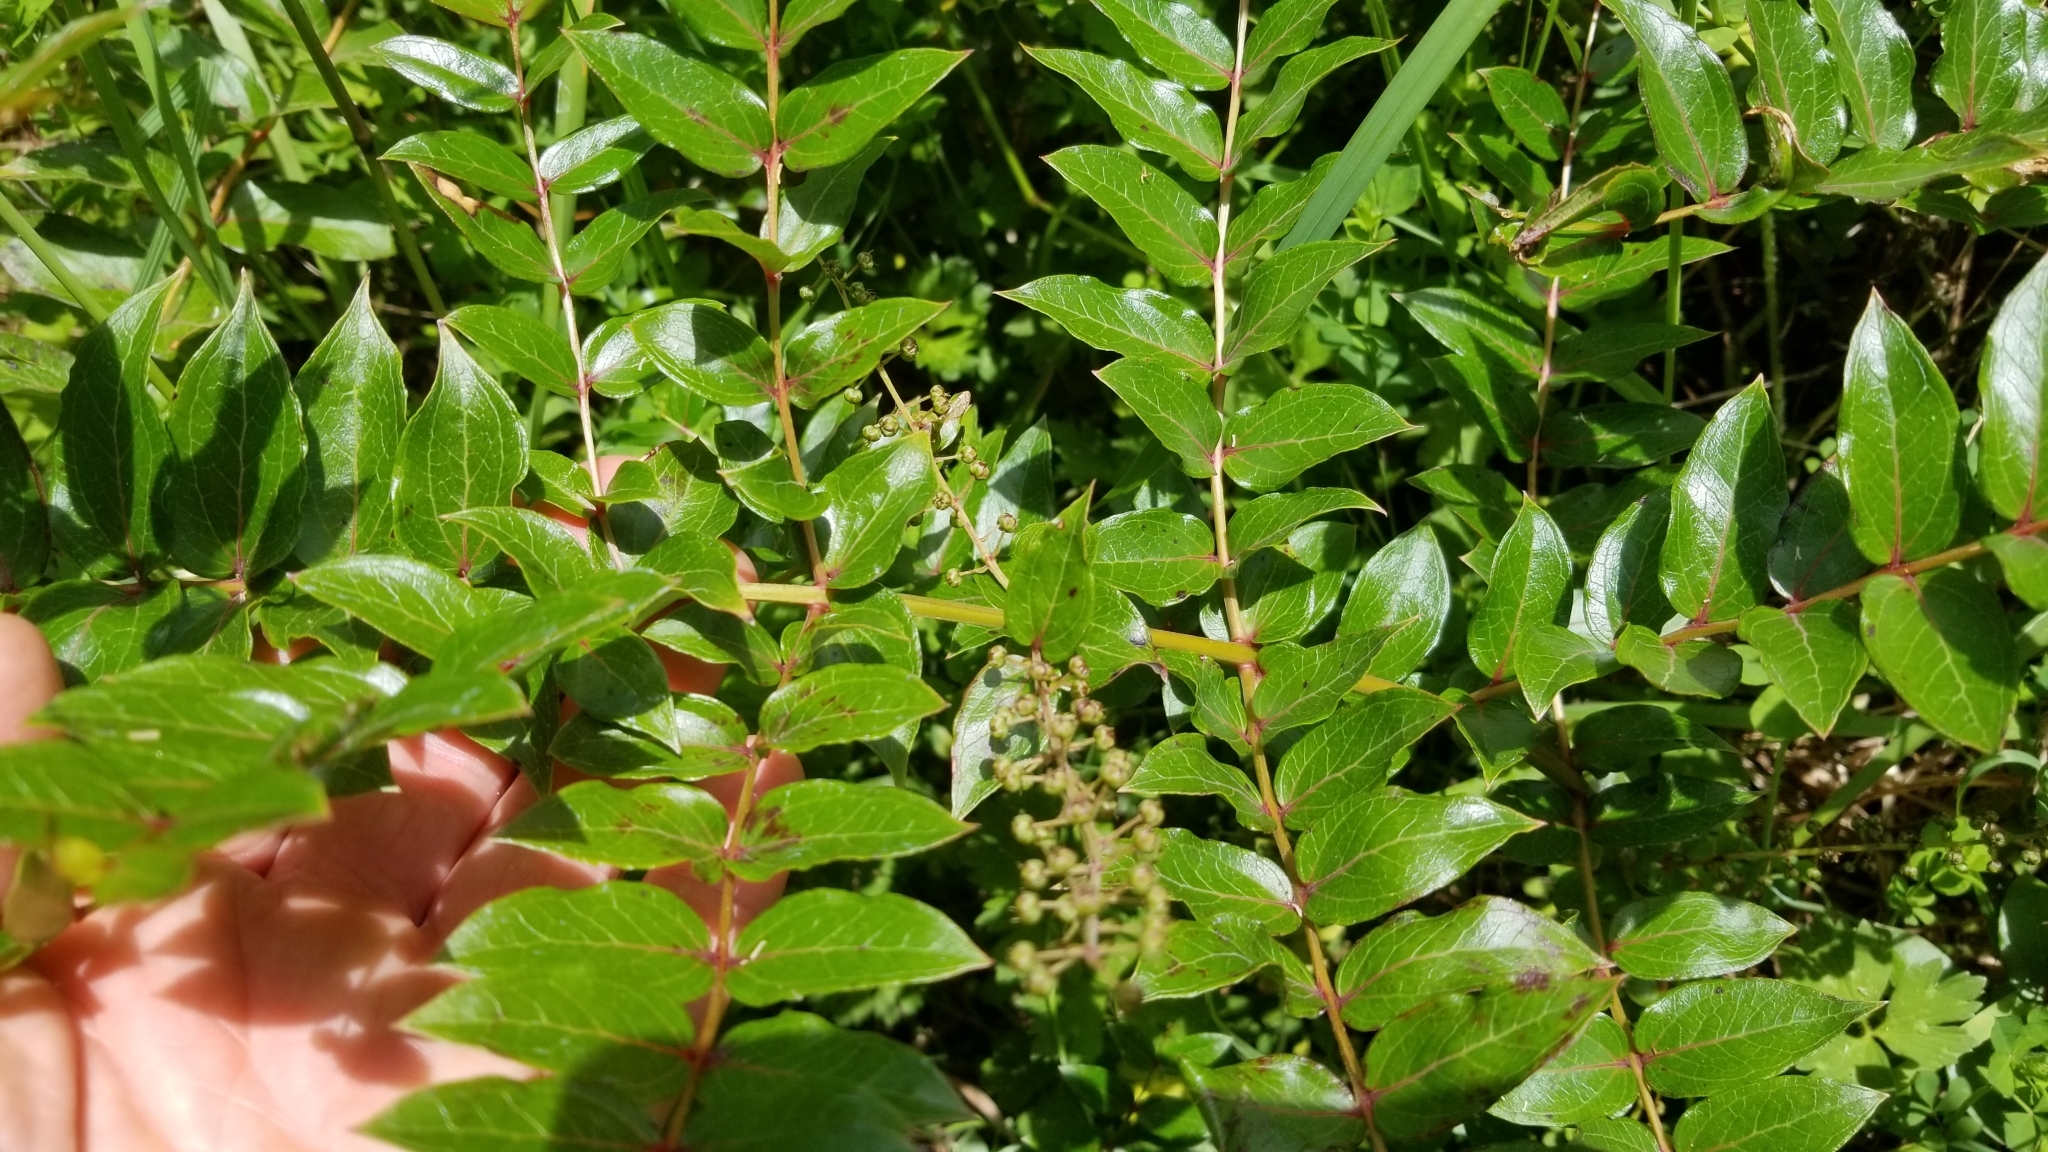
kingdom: Plantae
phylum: Tracheophyta
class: Magnoliopsida
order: Cucurbitales
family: Coriariaceae
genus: Coriaria
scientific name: Coriaria arborea
